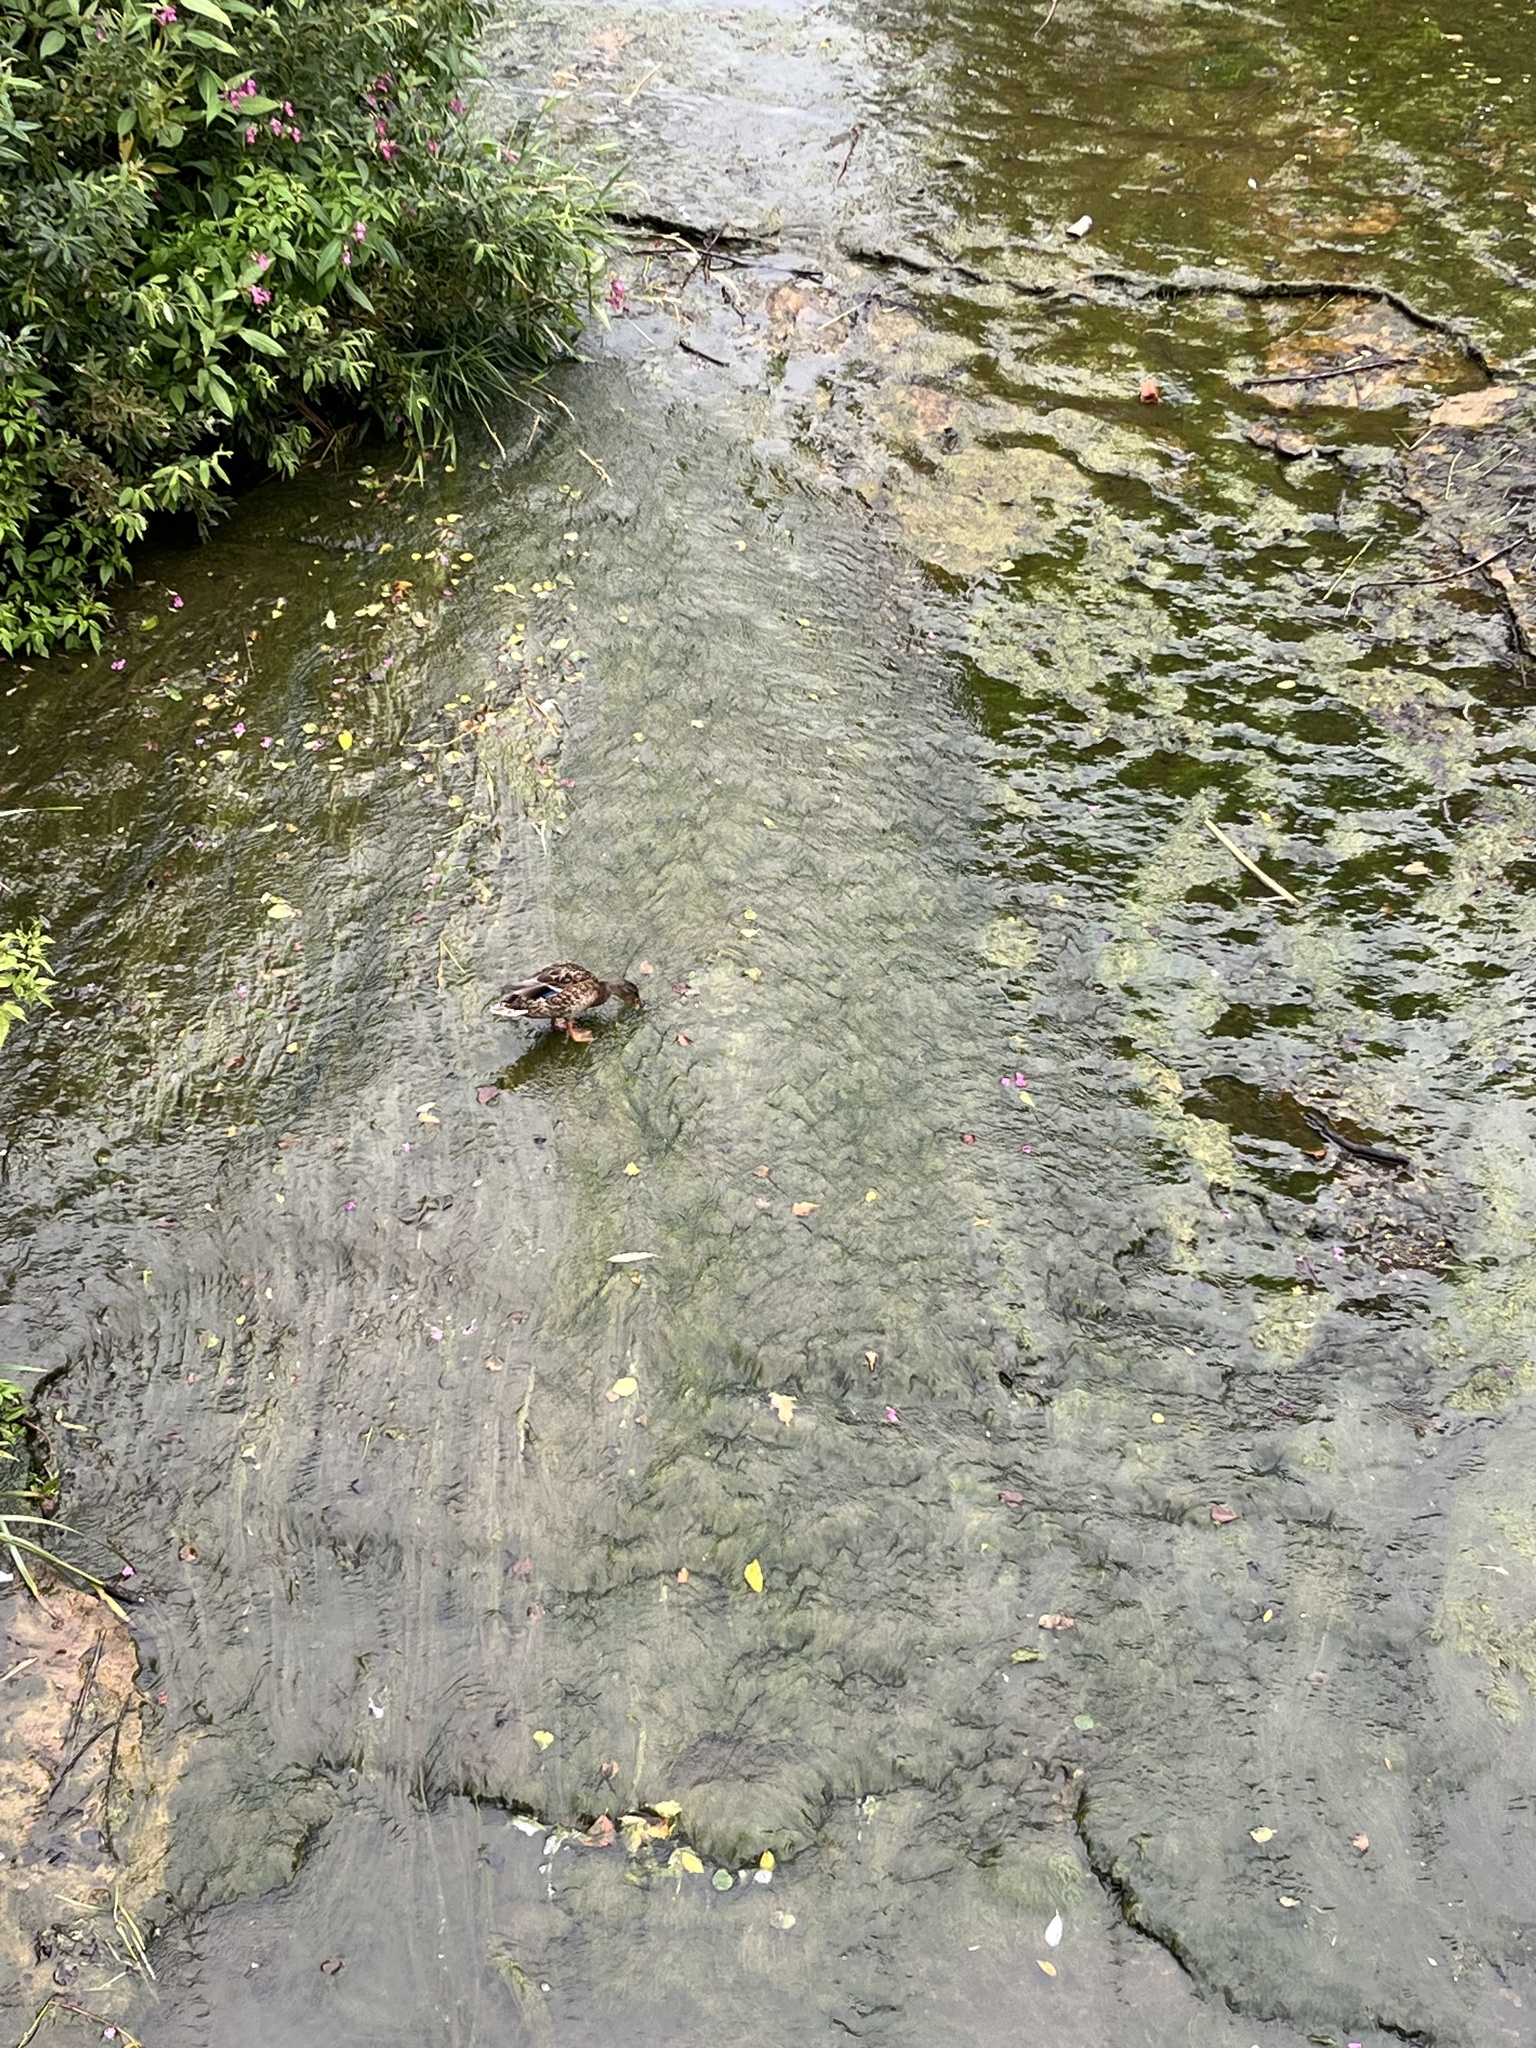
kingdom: Animalia
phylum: Chordata
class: Aves
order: Anseriformes
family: Anatidae
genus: Anas
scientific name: Anas platyrhynchos
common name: Mallard
